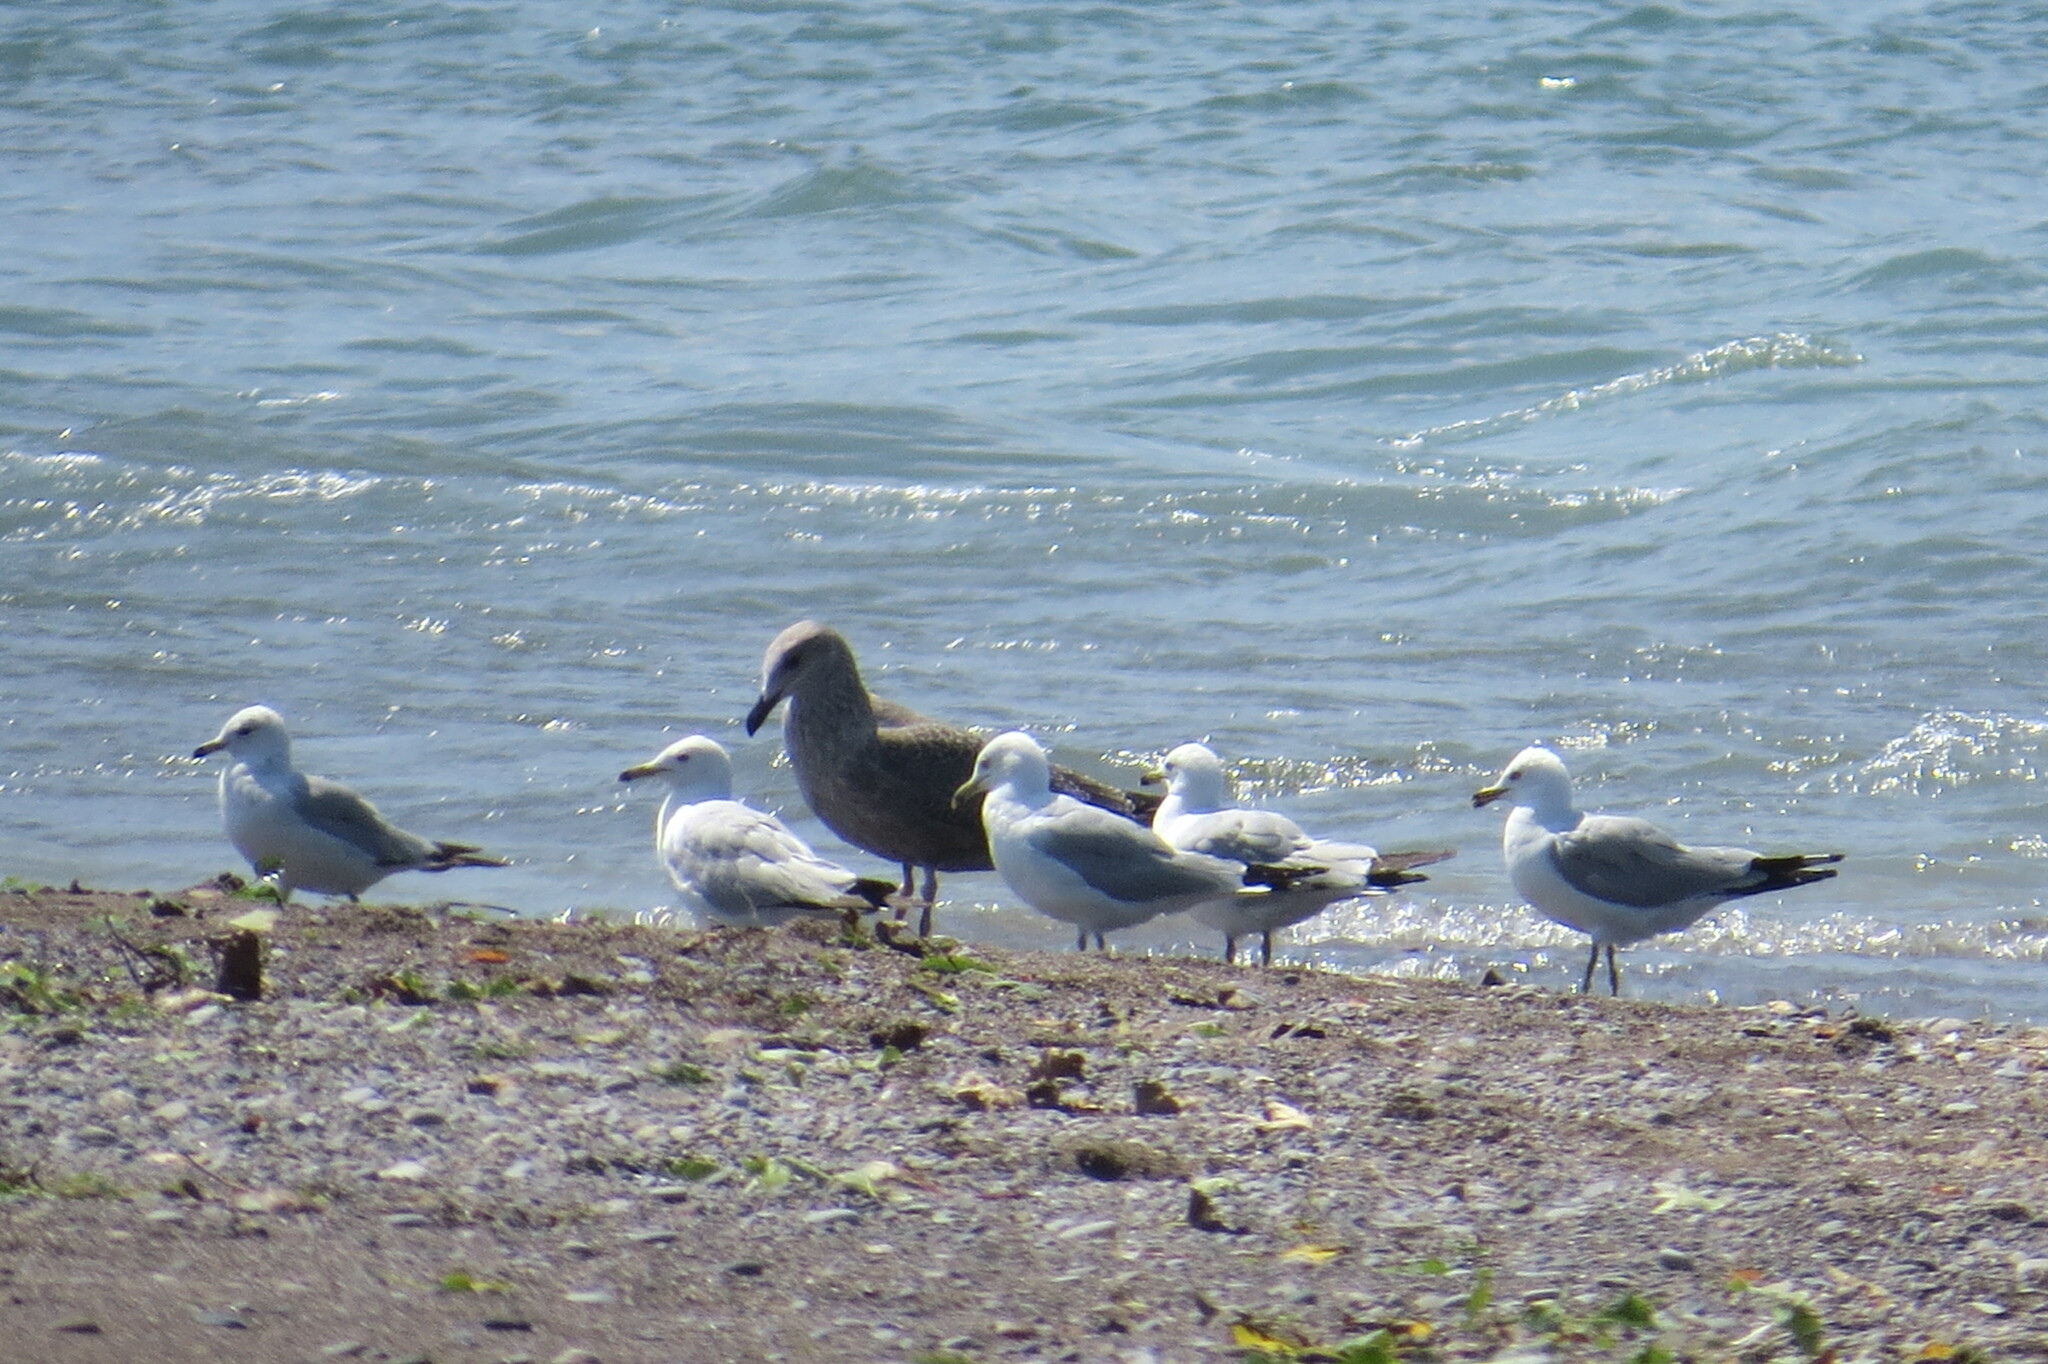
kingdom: Animalia
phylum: Chordata
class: Aves
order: Charadriiformes
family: Laridae
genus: Larus
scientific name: Larus argentatus
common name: Herring gull
